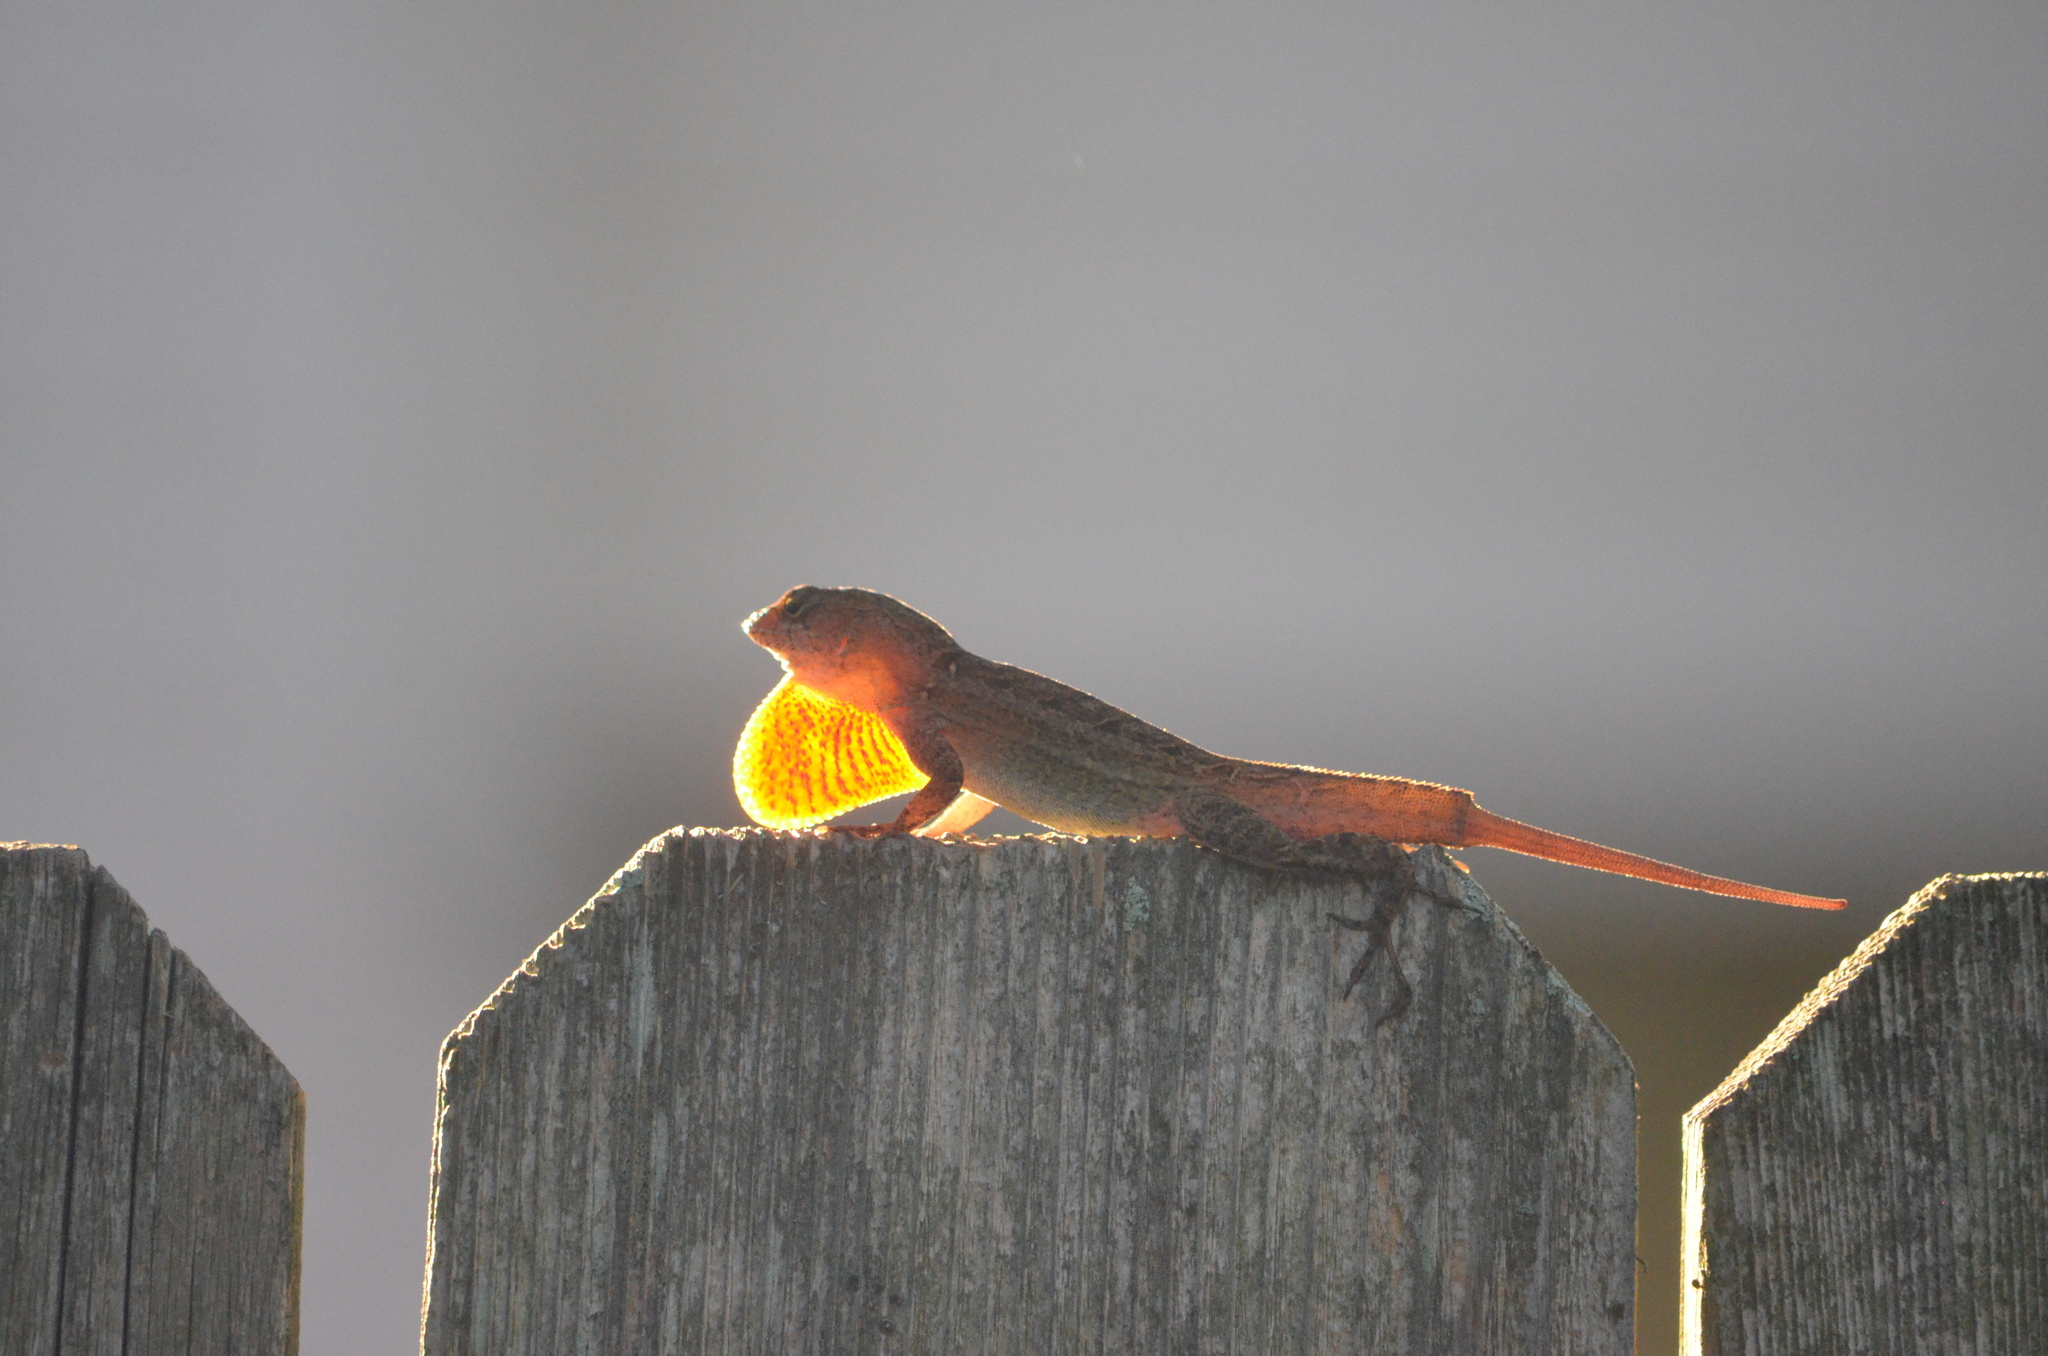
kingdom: Animalia
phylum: Chordata
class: Squamata
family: Dactyloidae
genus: Anolis
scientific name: Anolis sagrei
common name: Brown anole
